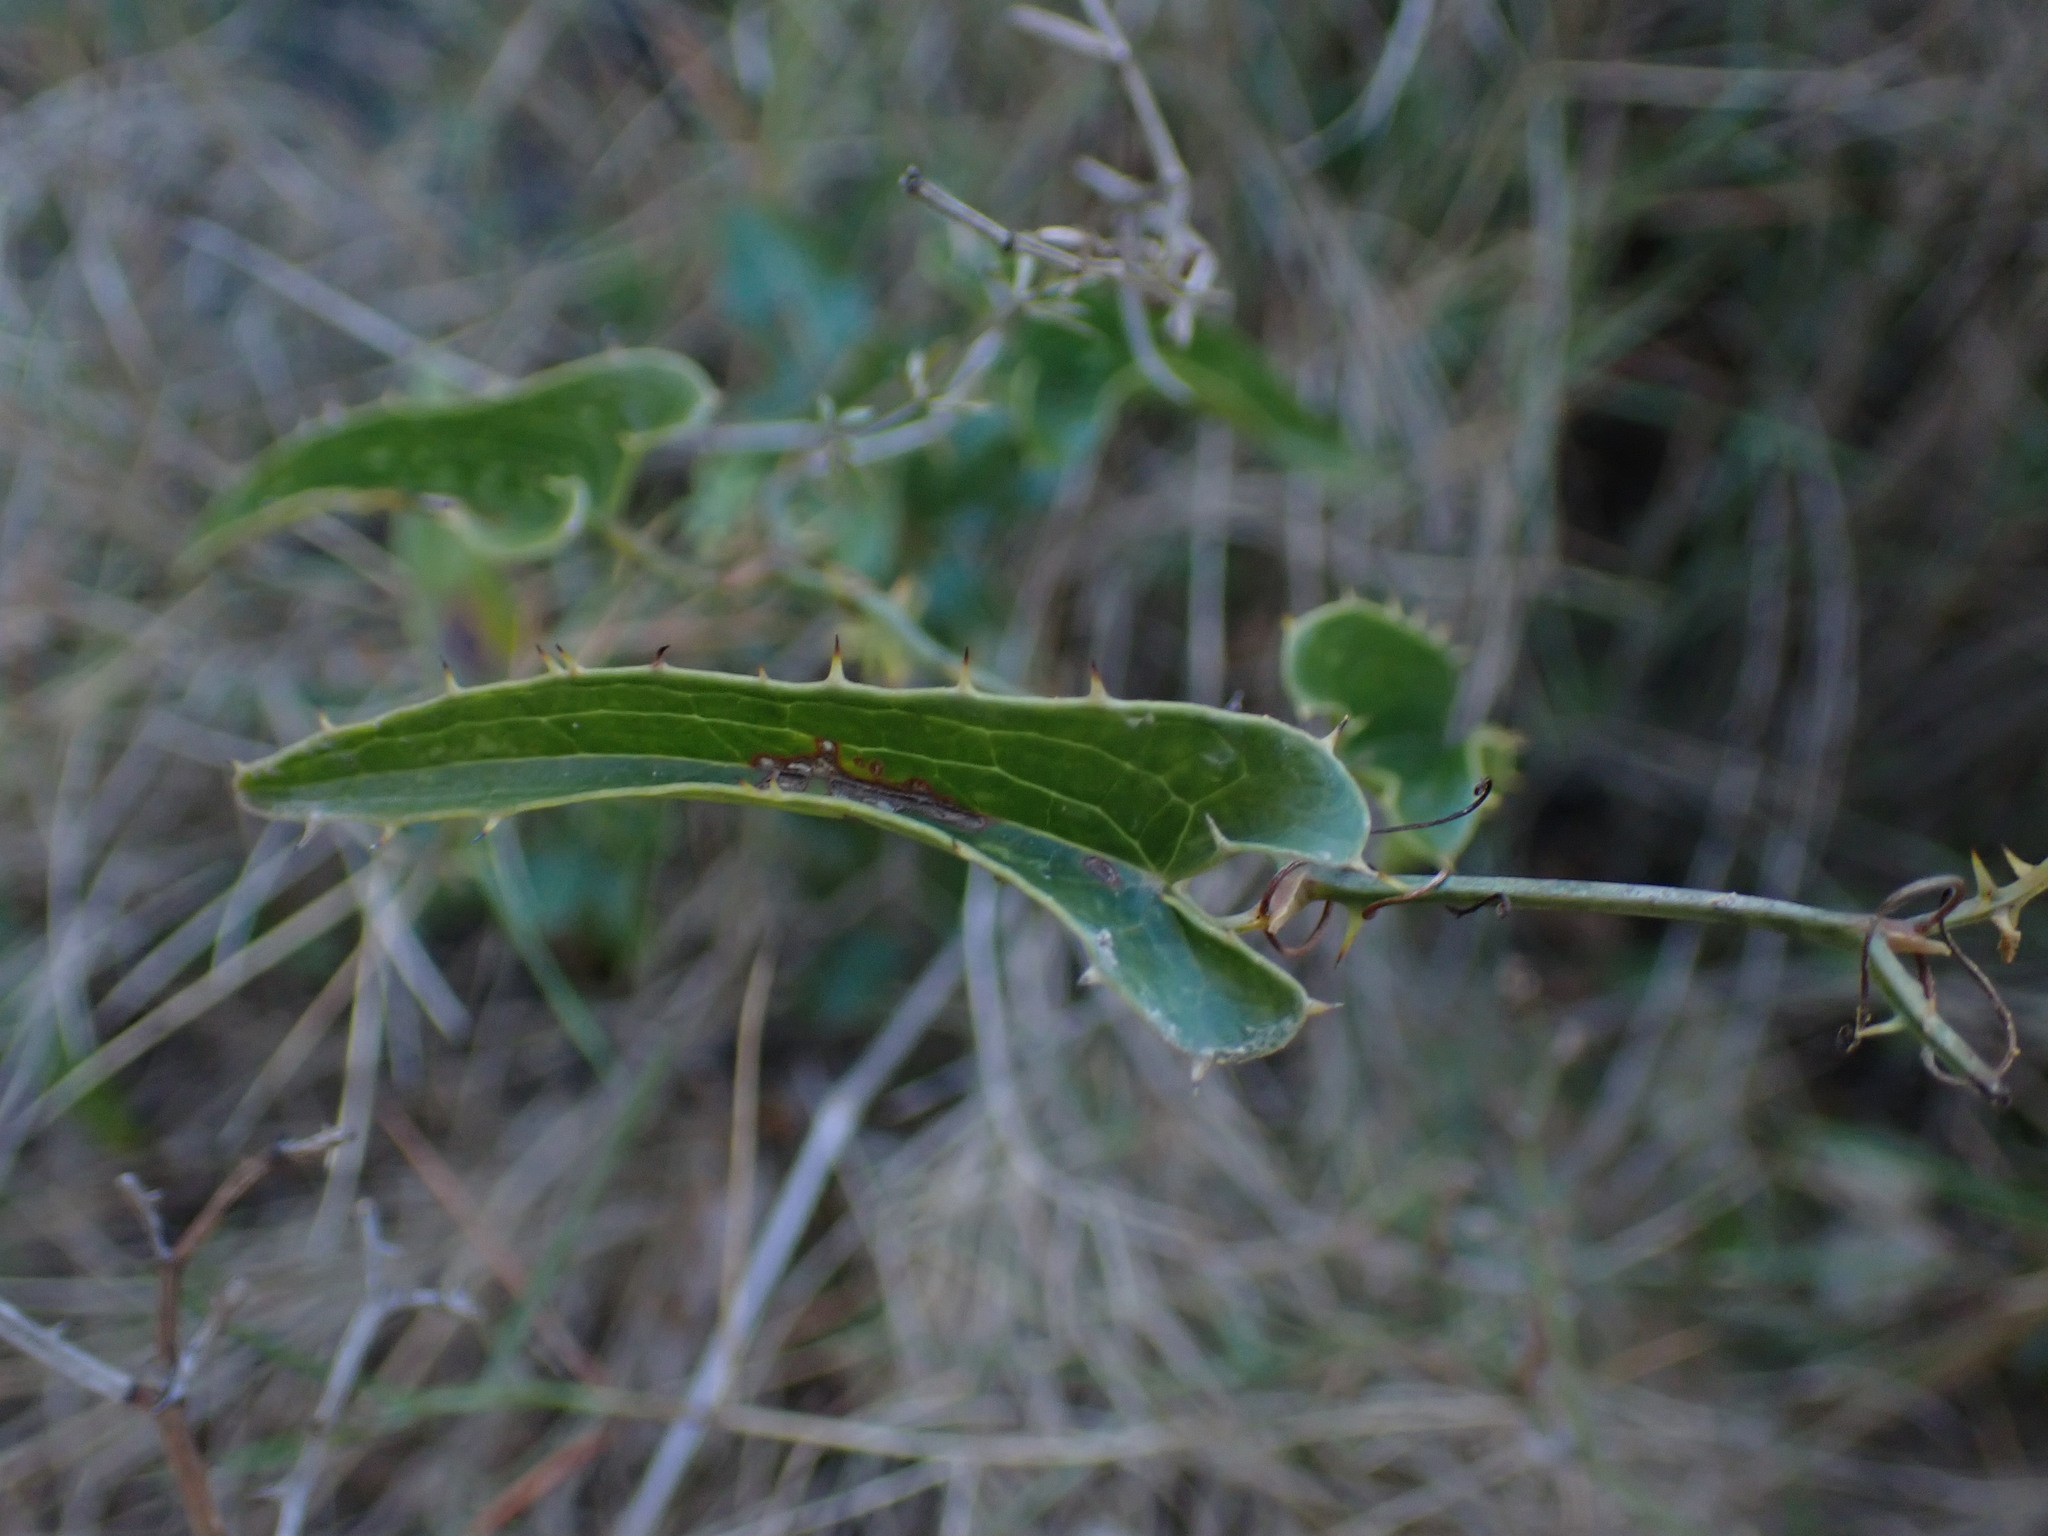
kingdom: Plantae
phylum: Tracheophyta
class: Liliopsida
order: Liliales
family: Smilacaceae
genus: Smilax
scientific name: Smilax aspera
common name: Common smilax
